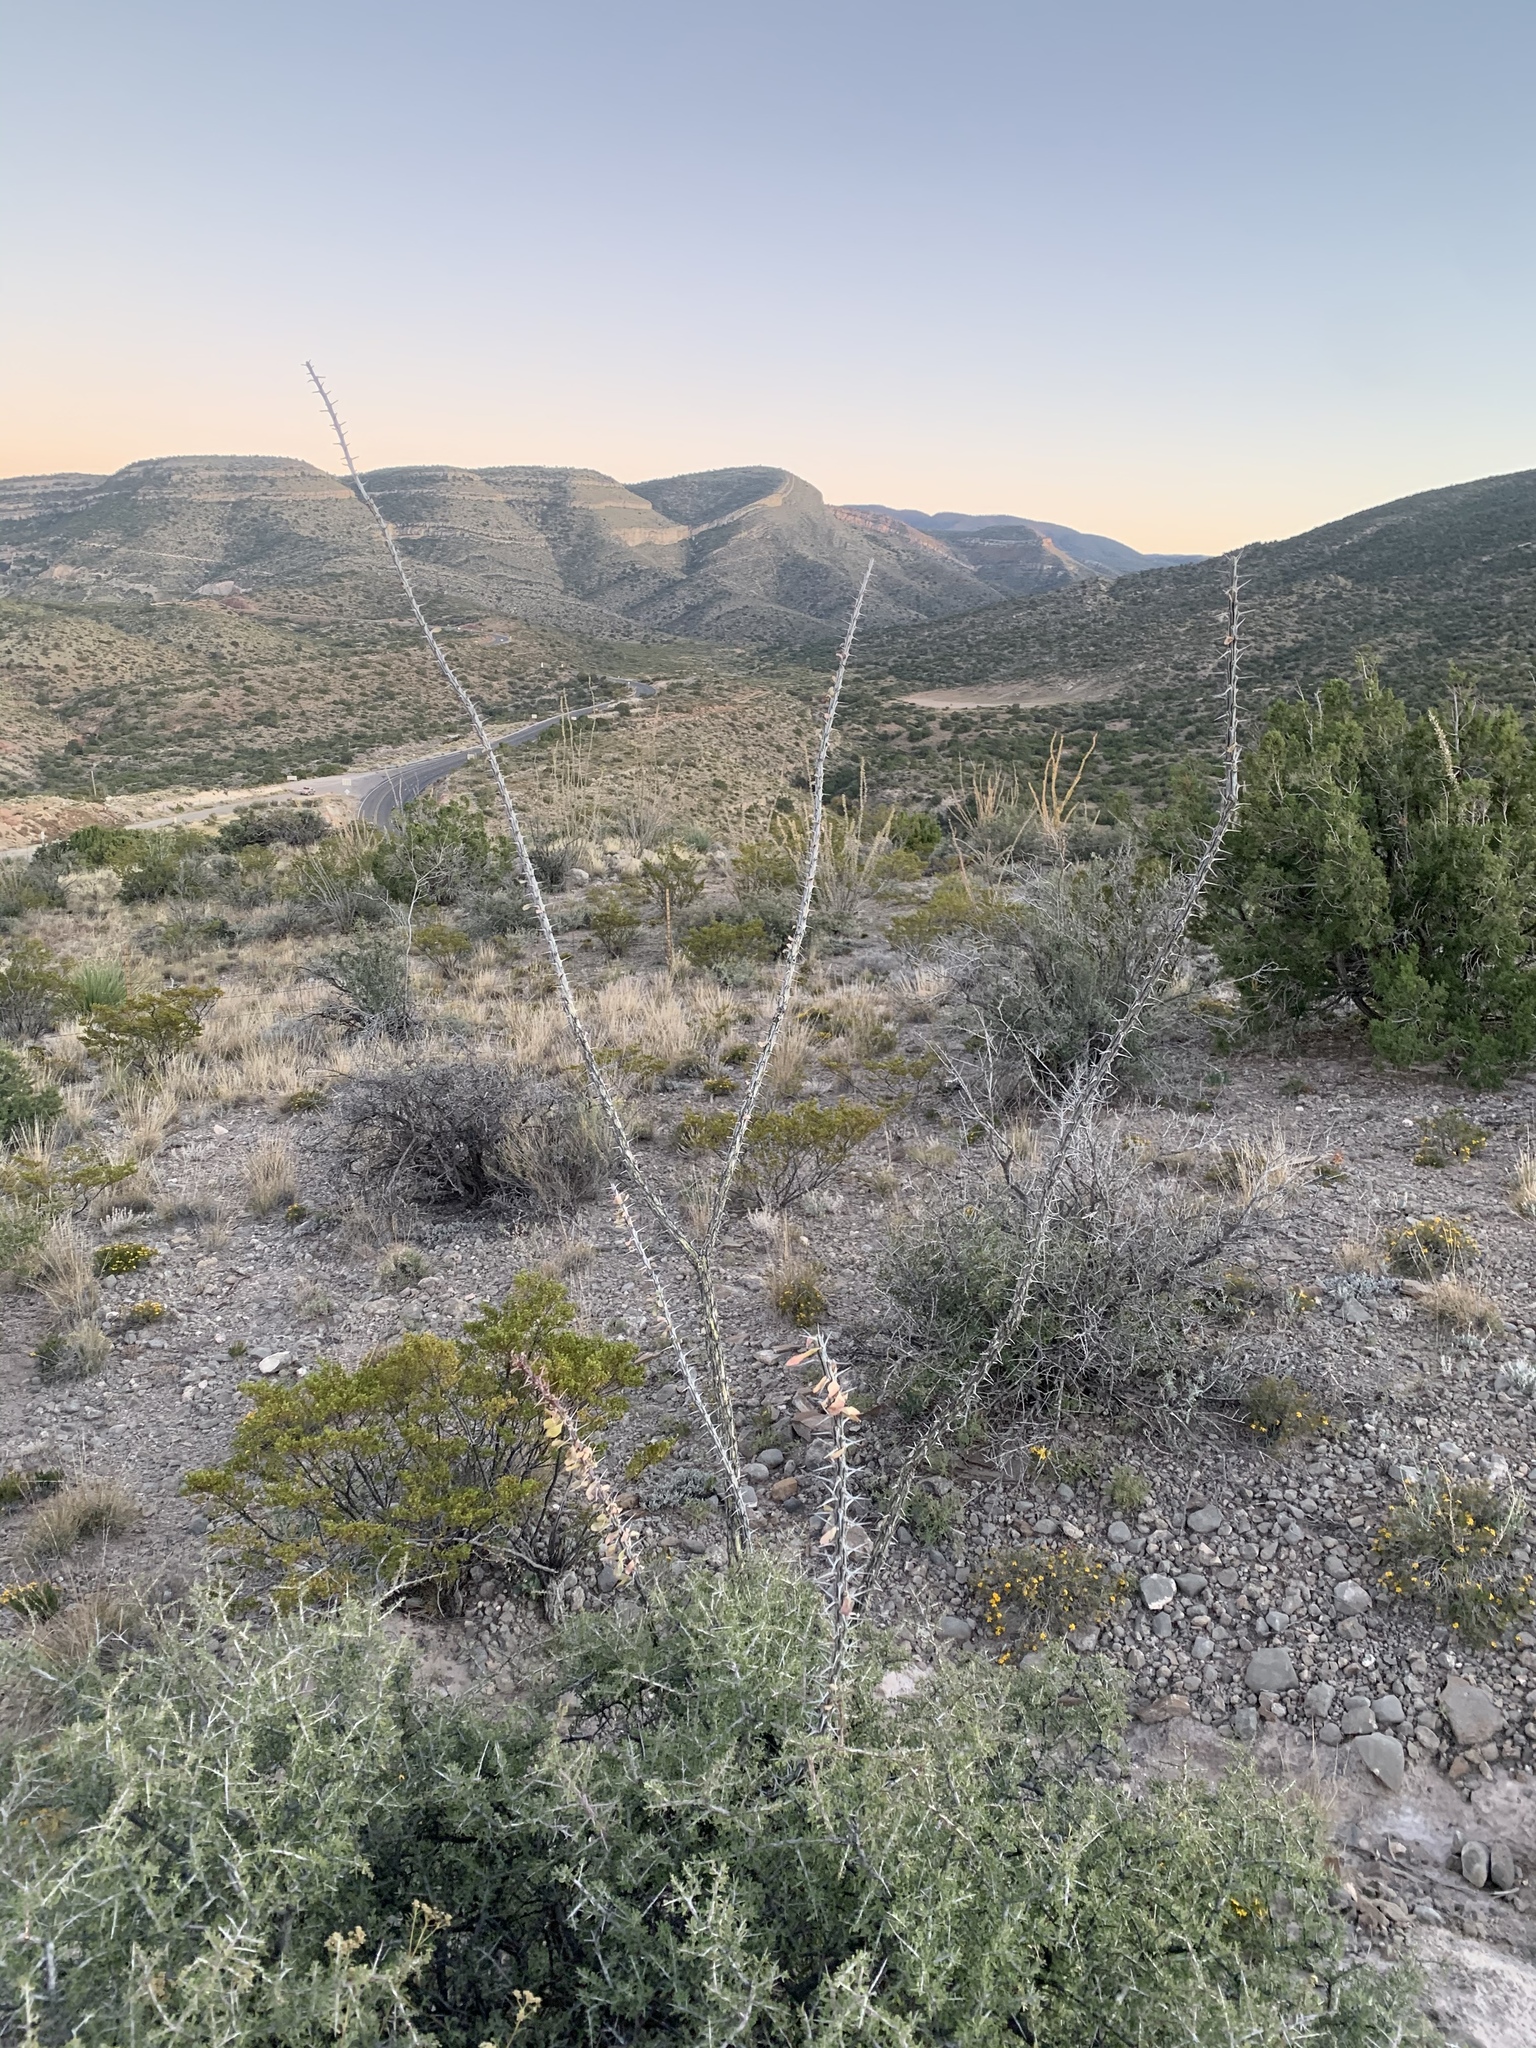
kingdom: Plantae
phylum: Tracheophyta
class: Magnoliopsida
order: Ericales
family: Fouquieriaceae
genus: Fouquieria
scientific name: Fouquieria splendens
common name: Vine-cactus
